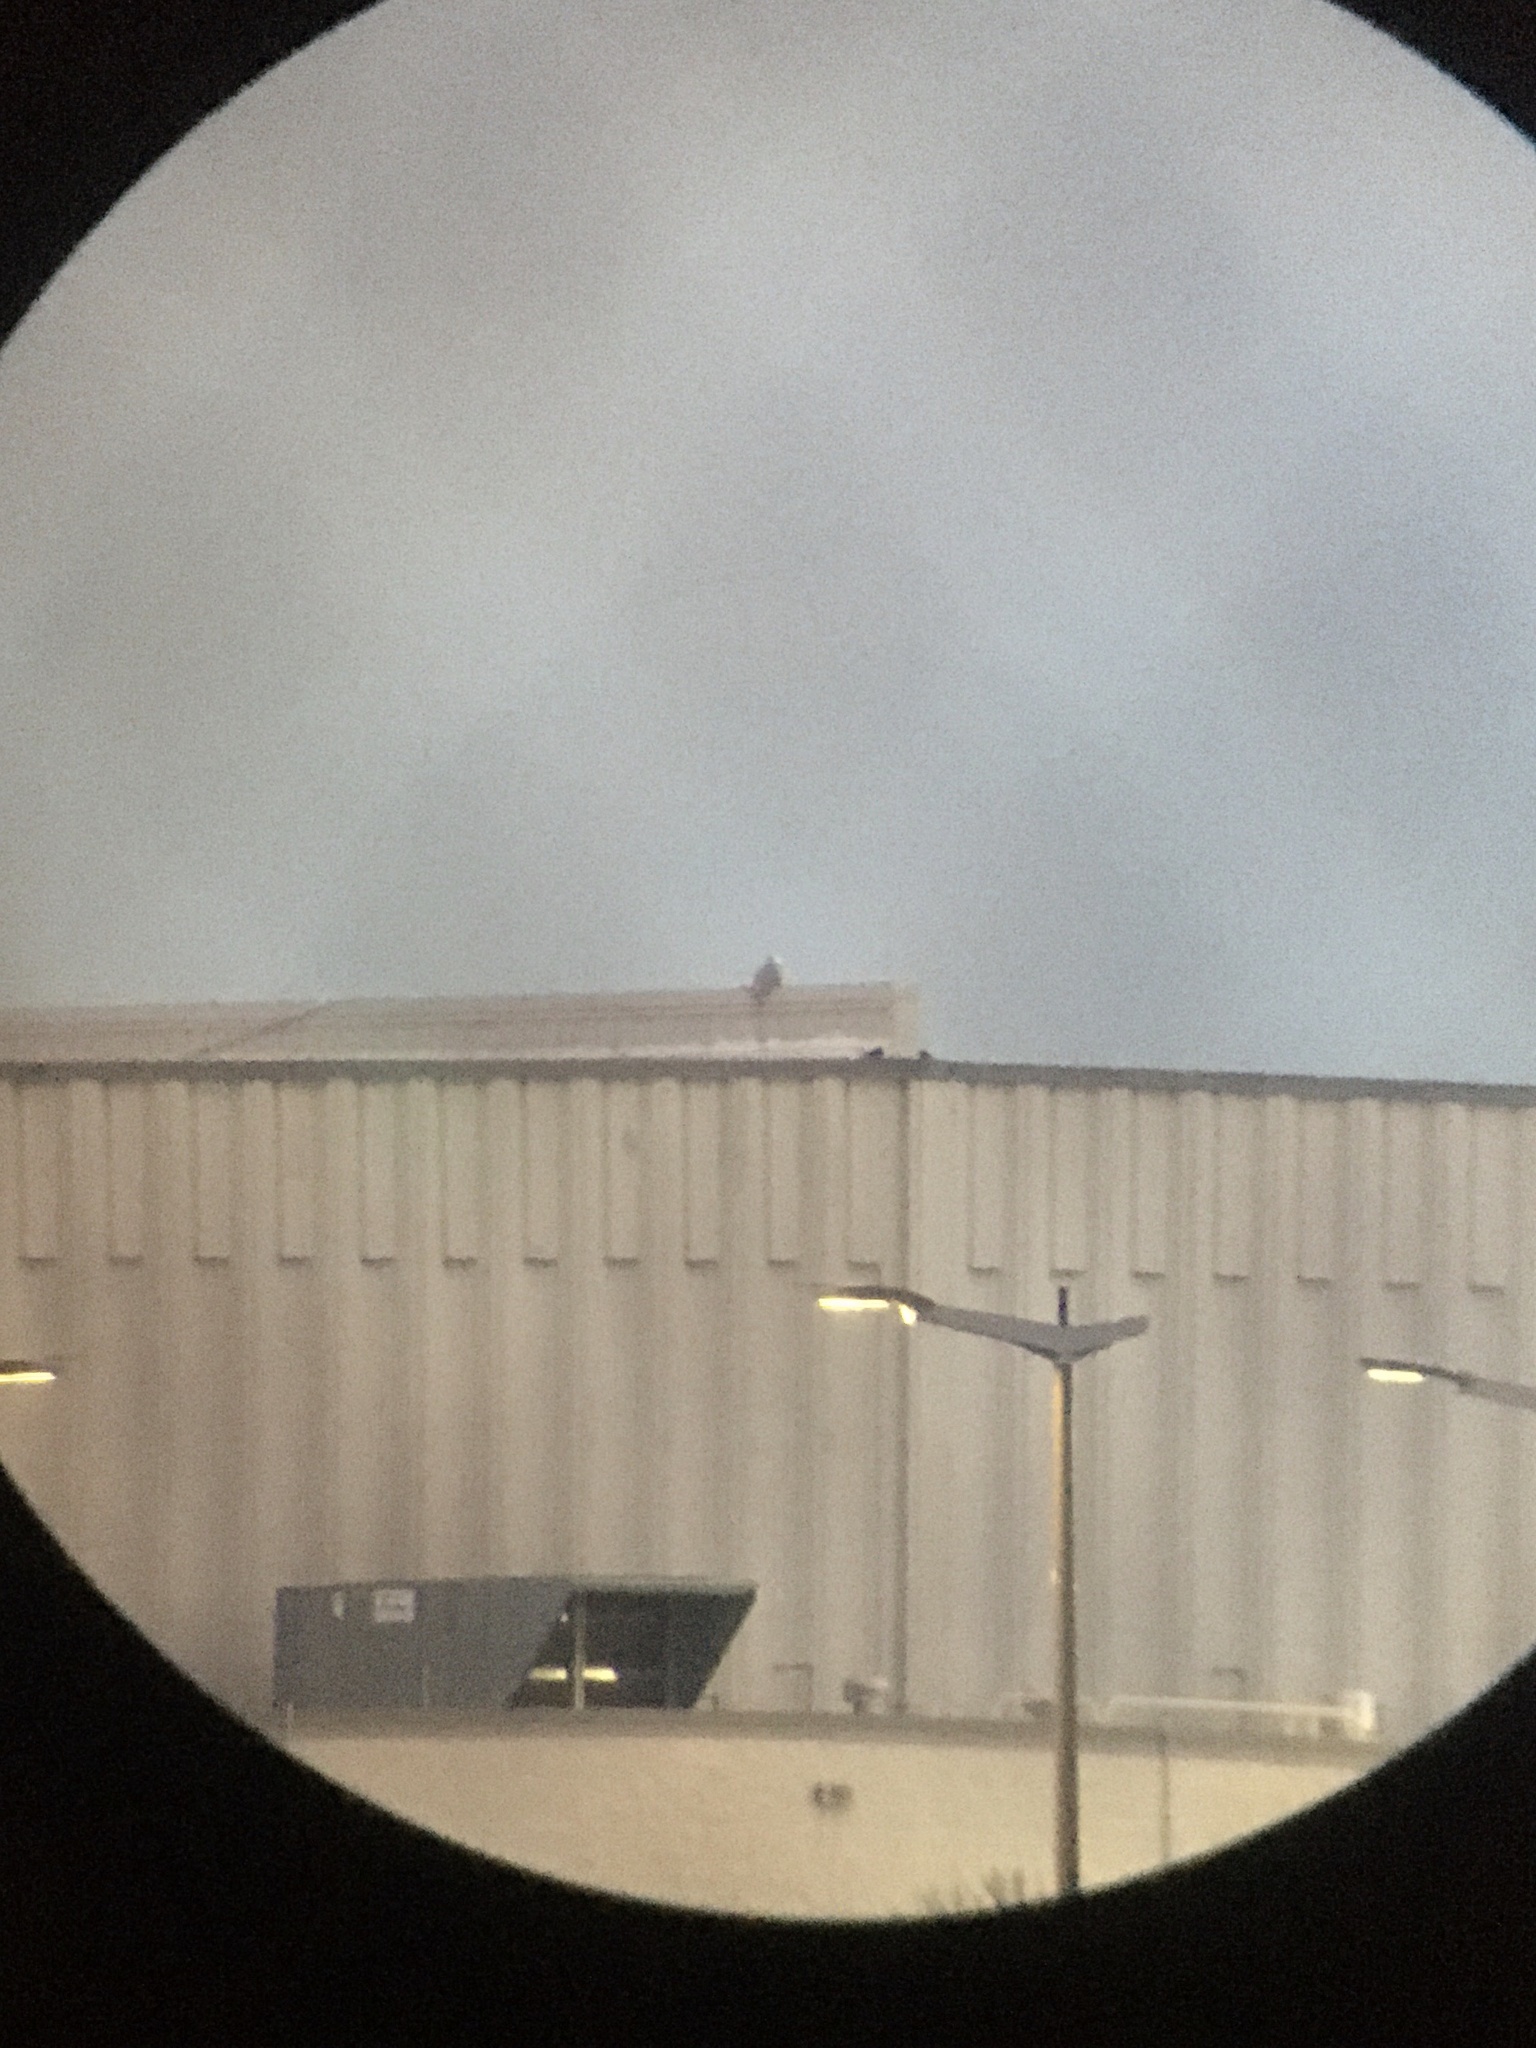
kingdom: Animalia
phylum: Chordata
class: Aves
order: Strigiformes
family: Strigidae
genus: Bubo
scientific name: Bubo scandiacus
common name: Snowy owl
